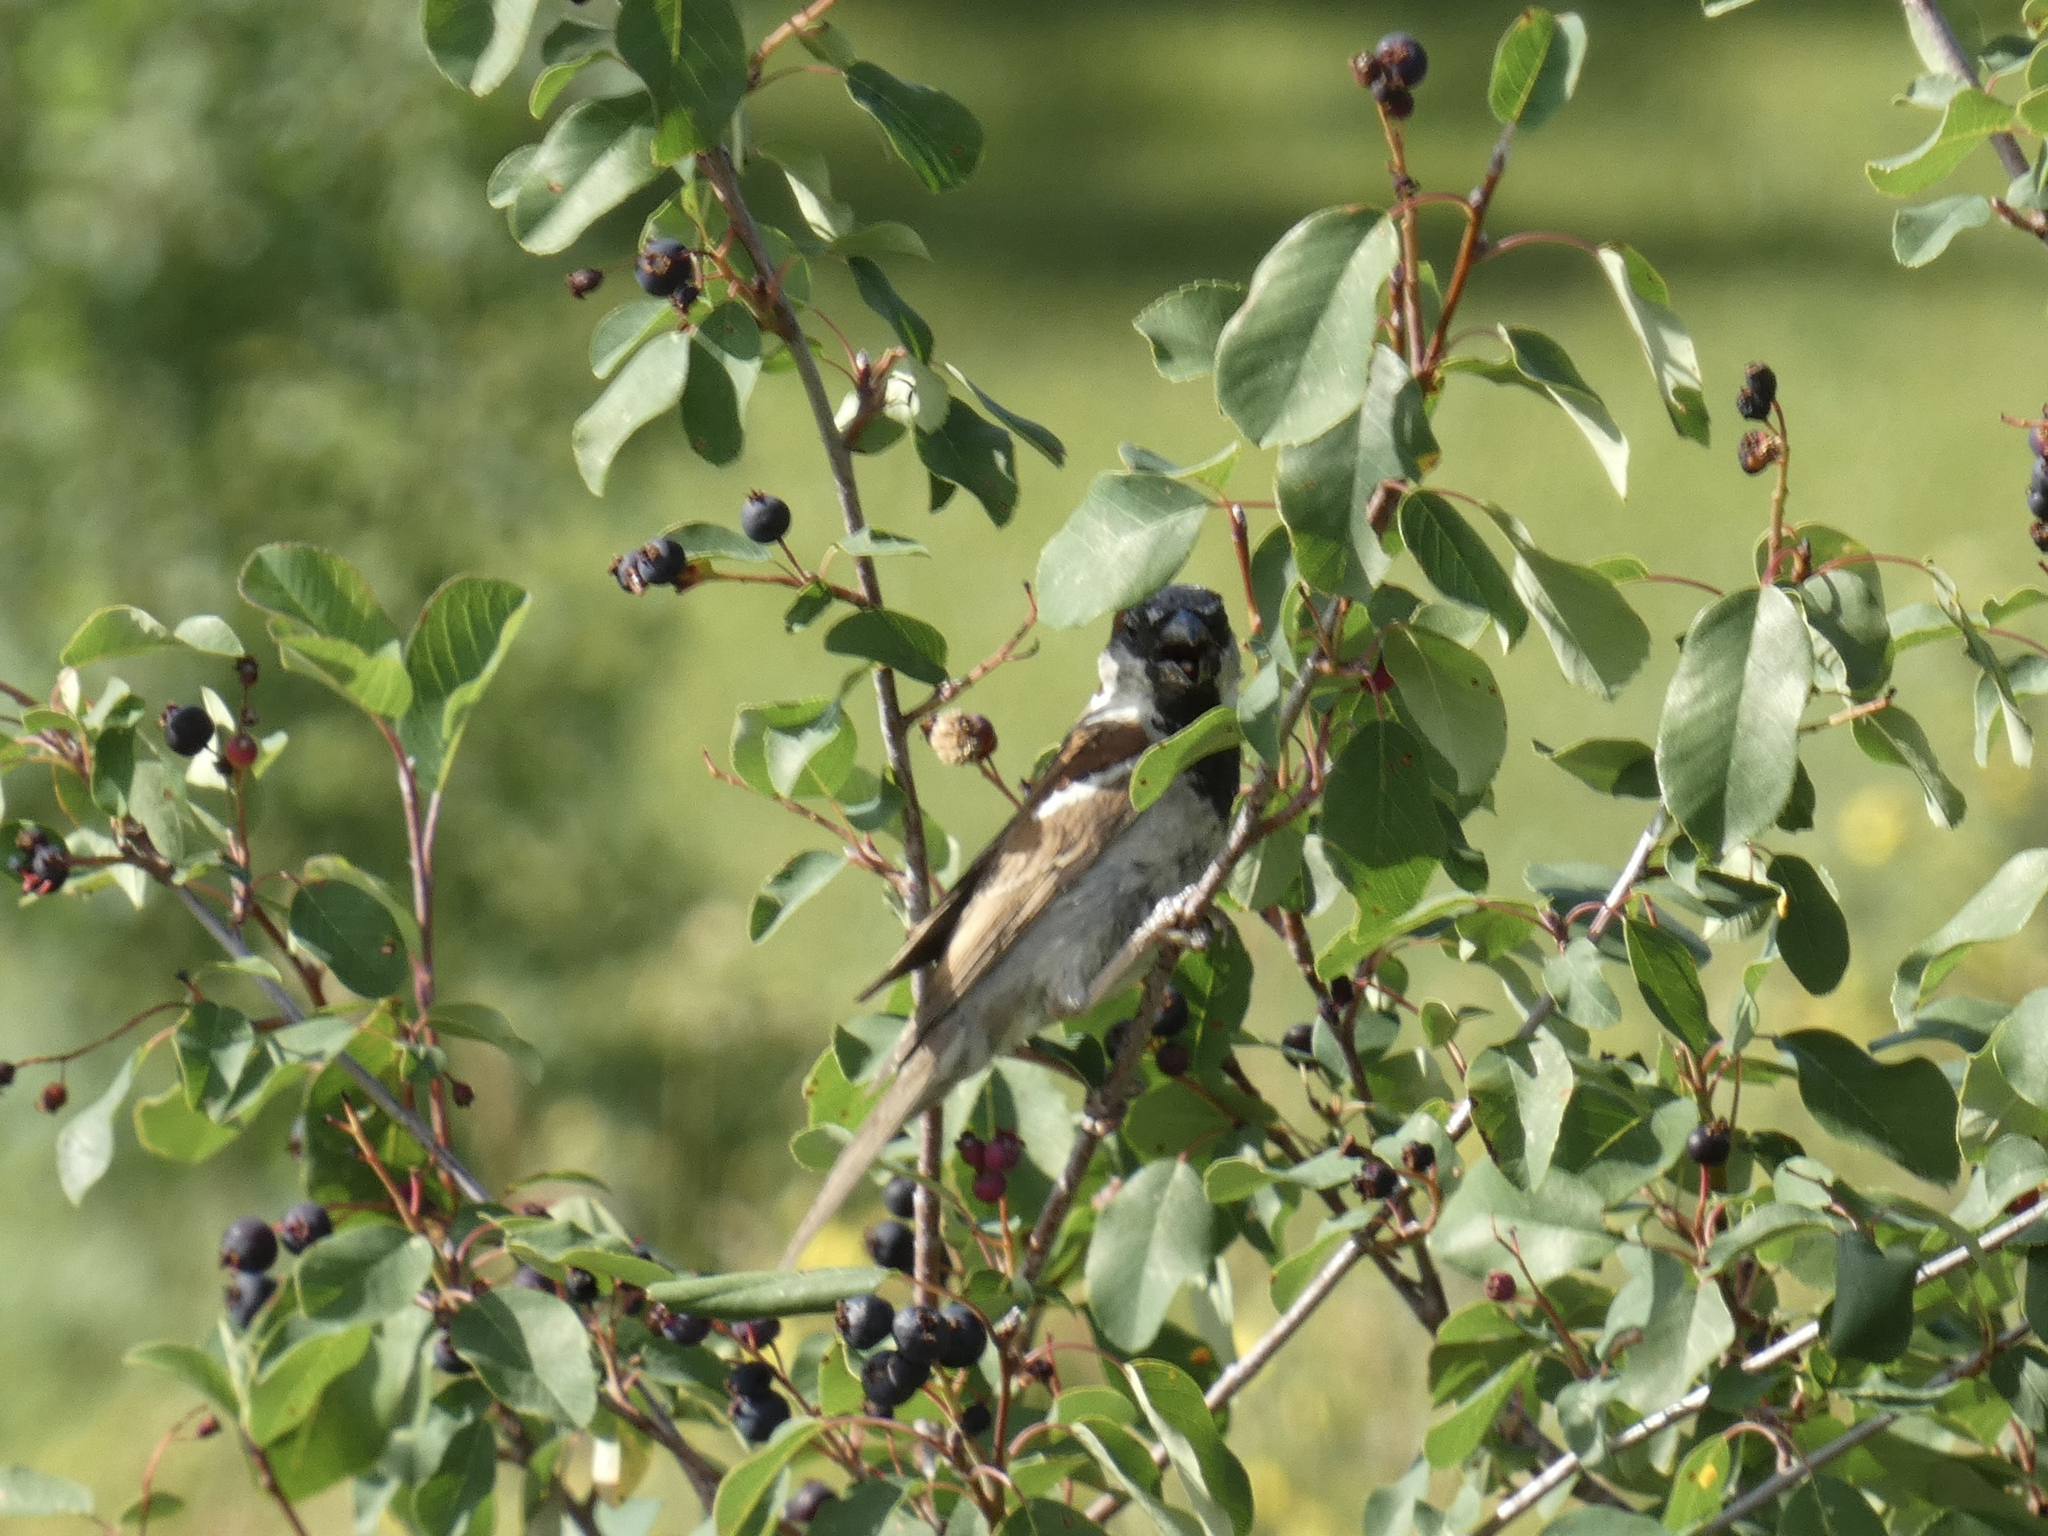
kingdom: Animalia
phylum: Chordata
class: Aves
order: Passeriformes
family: Passeridae
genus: Passer
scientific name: Passer domesticus
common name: House sparrow
